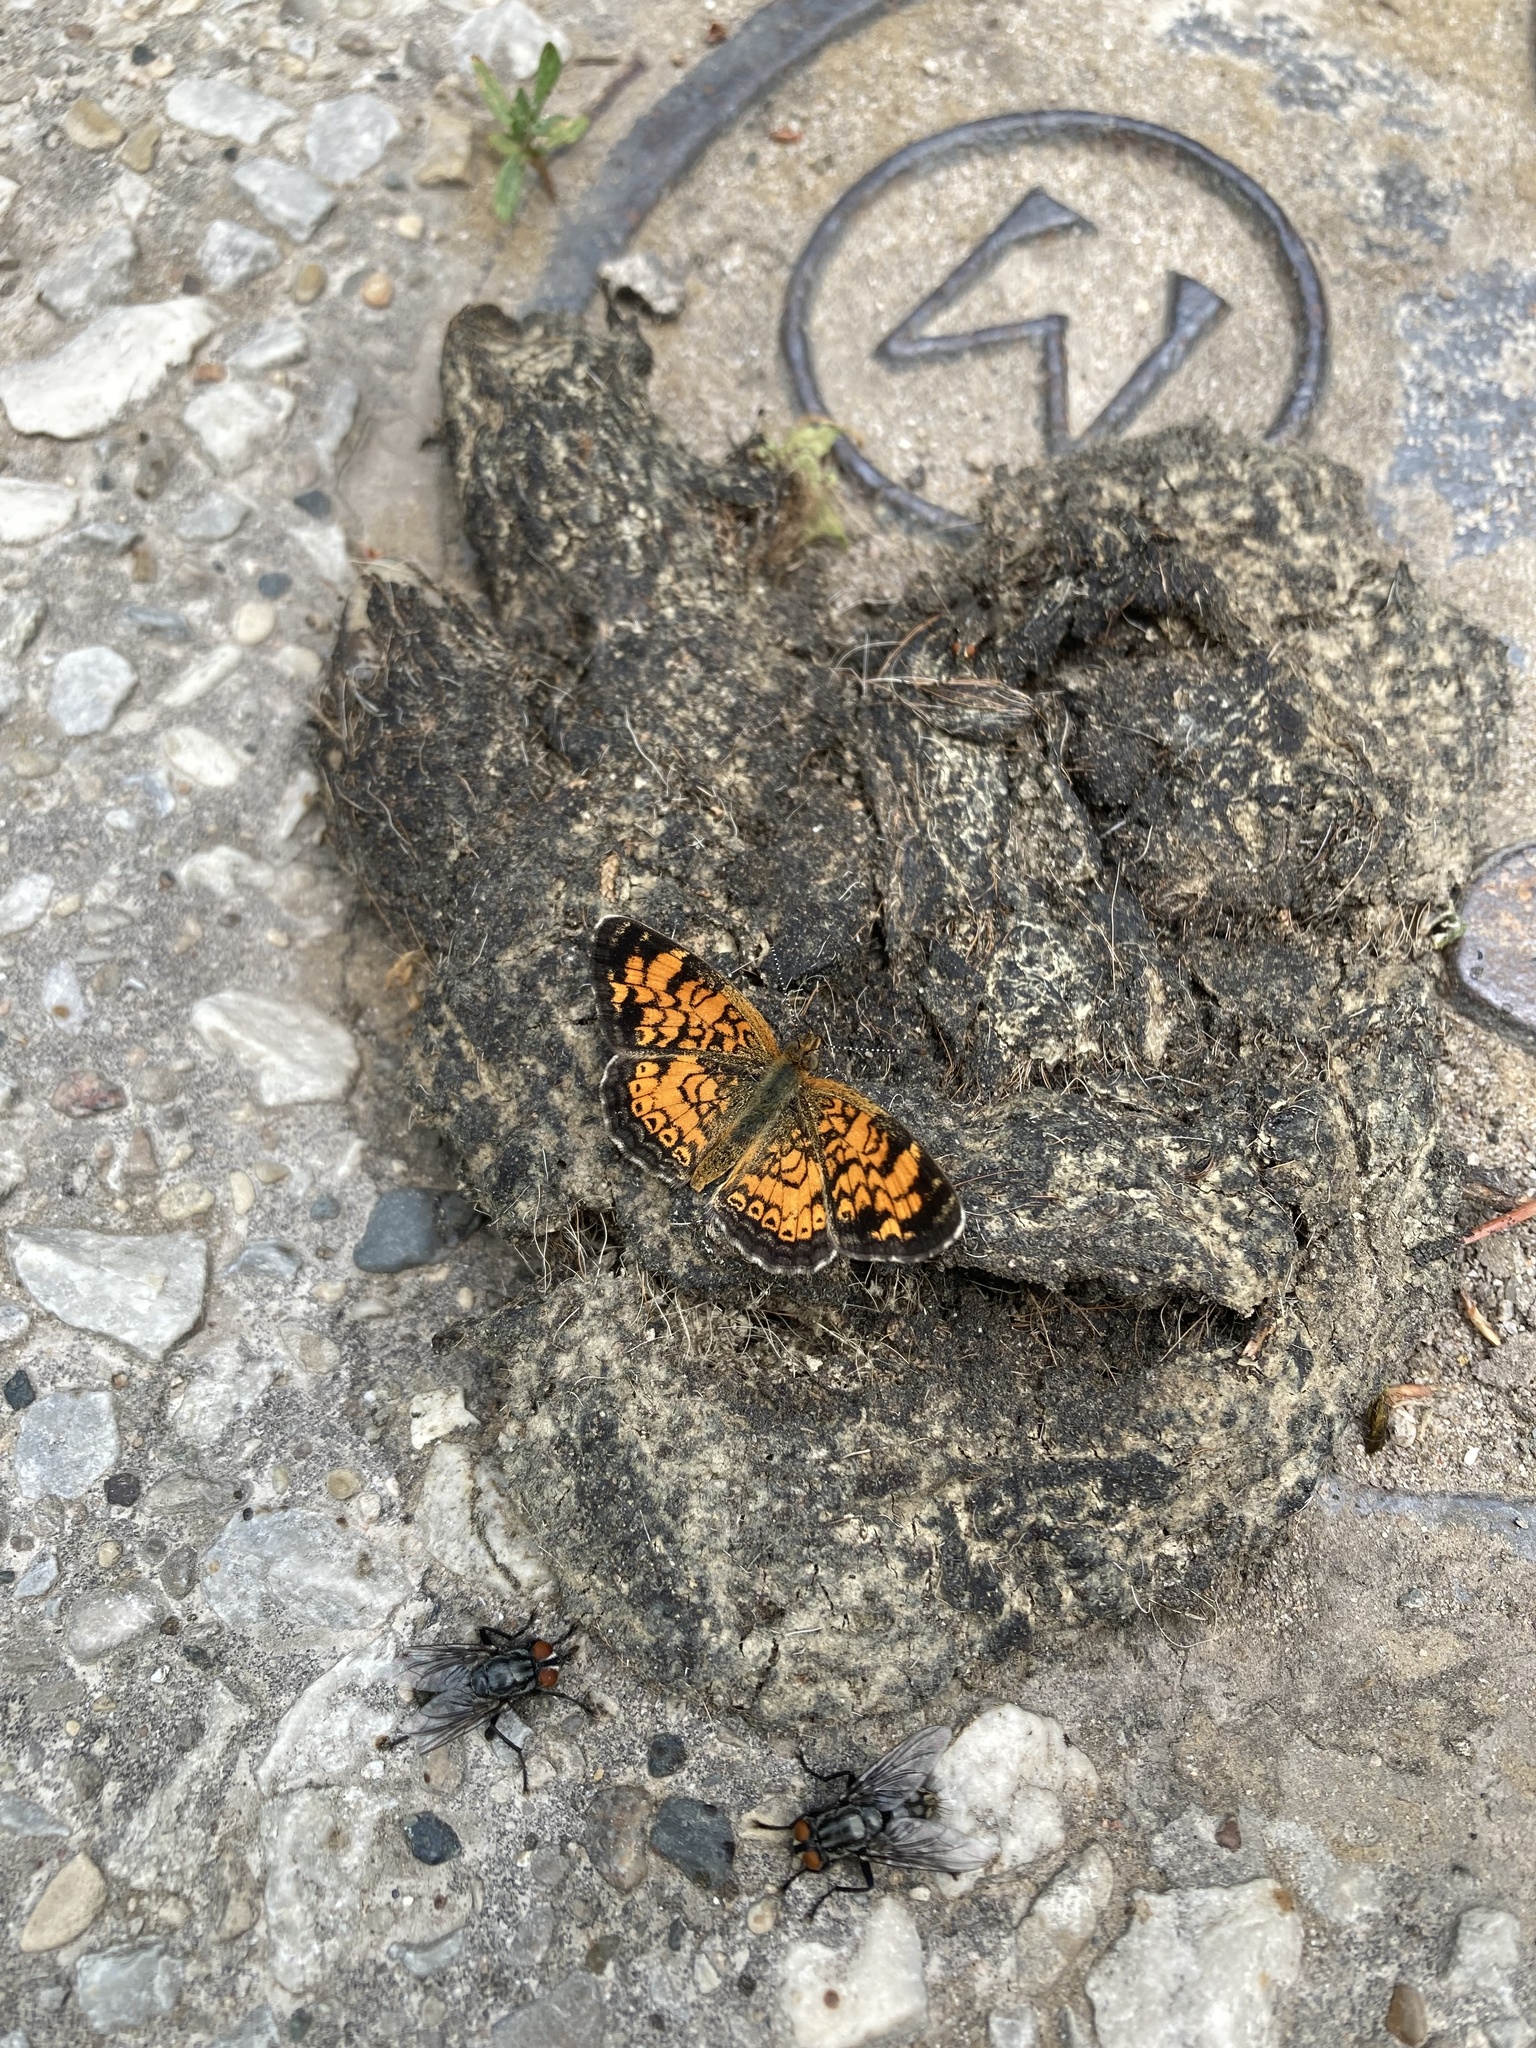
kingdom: Animalia
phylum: Arthropoda
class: Insecta
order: Lepidoptera
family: Nymphalidae
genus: Phyciodes
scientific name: Phyciodes tharos
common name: Pearl crescent
